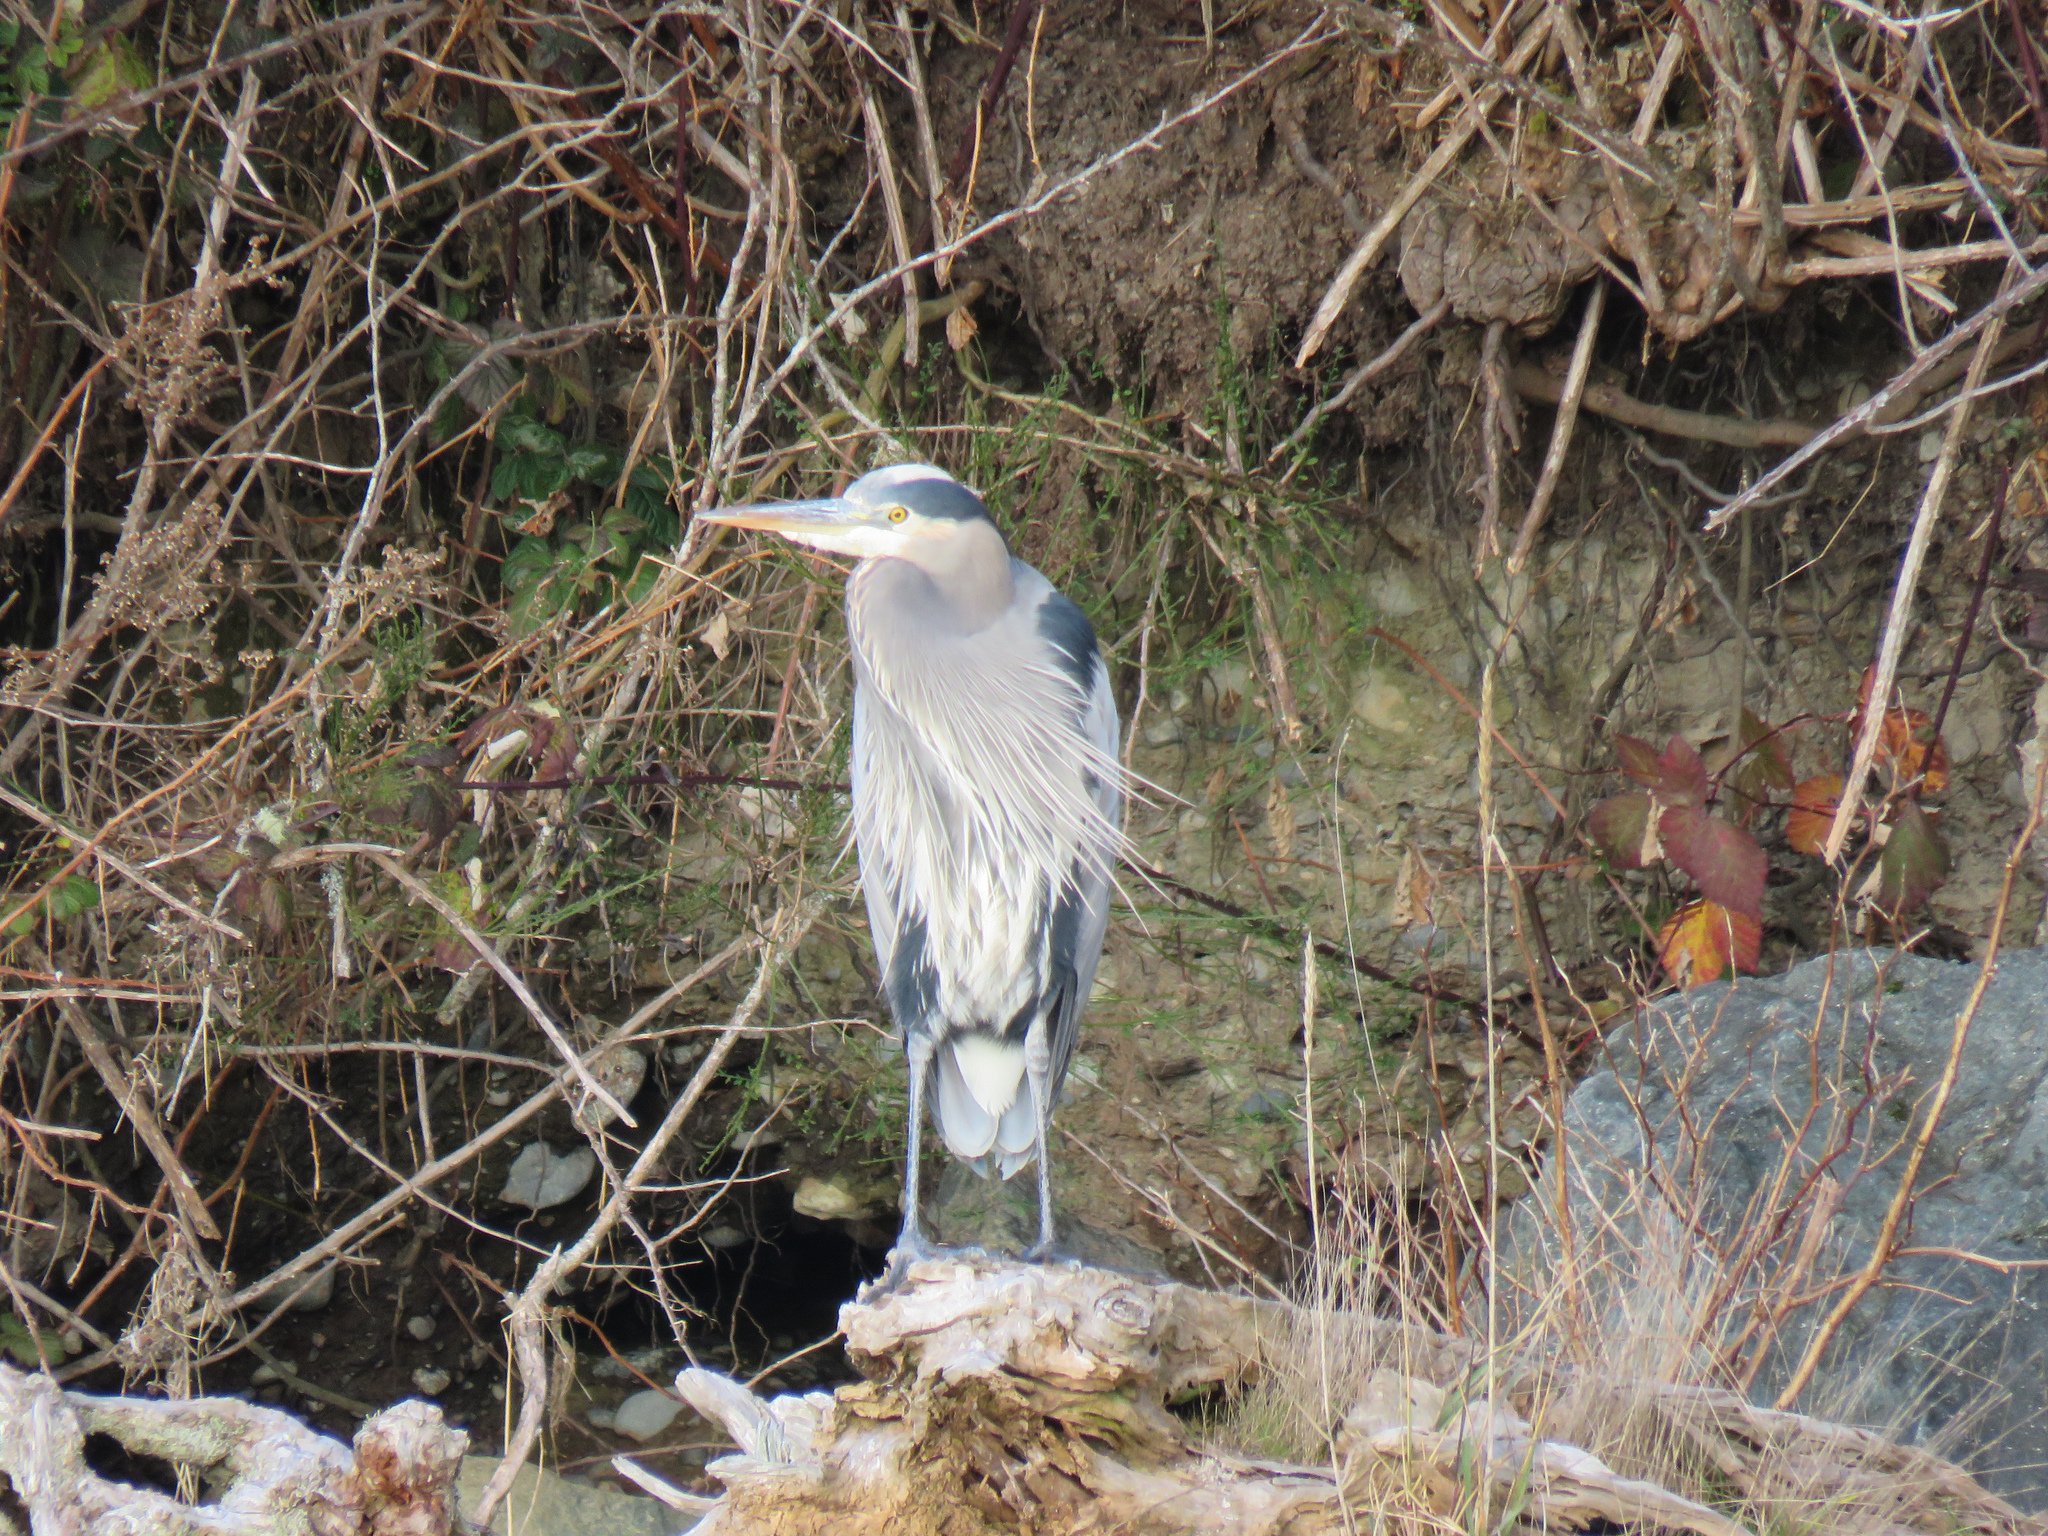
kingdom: Animalia
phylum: Chordata
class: Aves
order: Pelecaniformes
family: Ardeidae
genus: Ardea
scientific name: Ardea herodias
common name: Great blue heron
